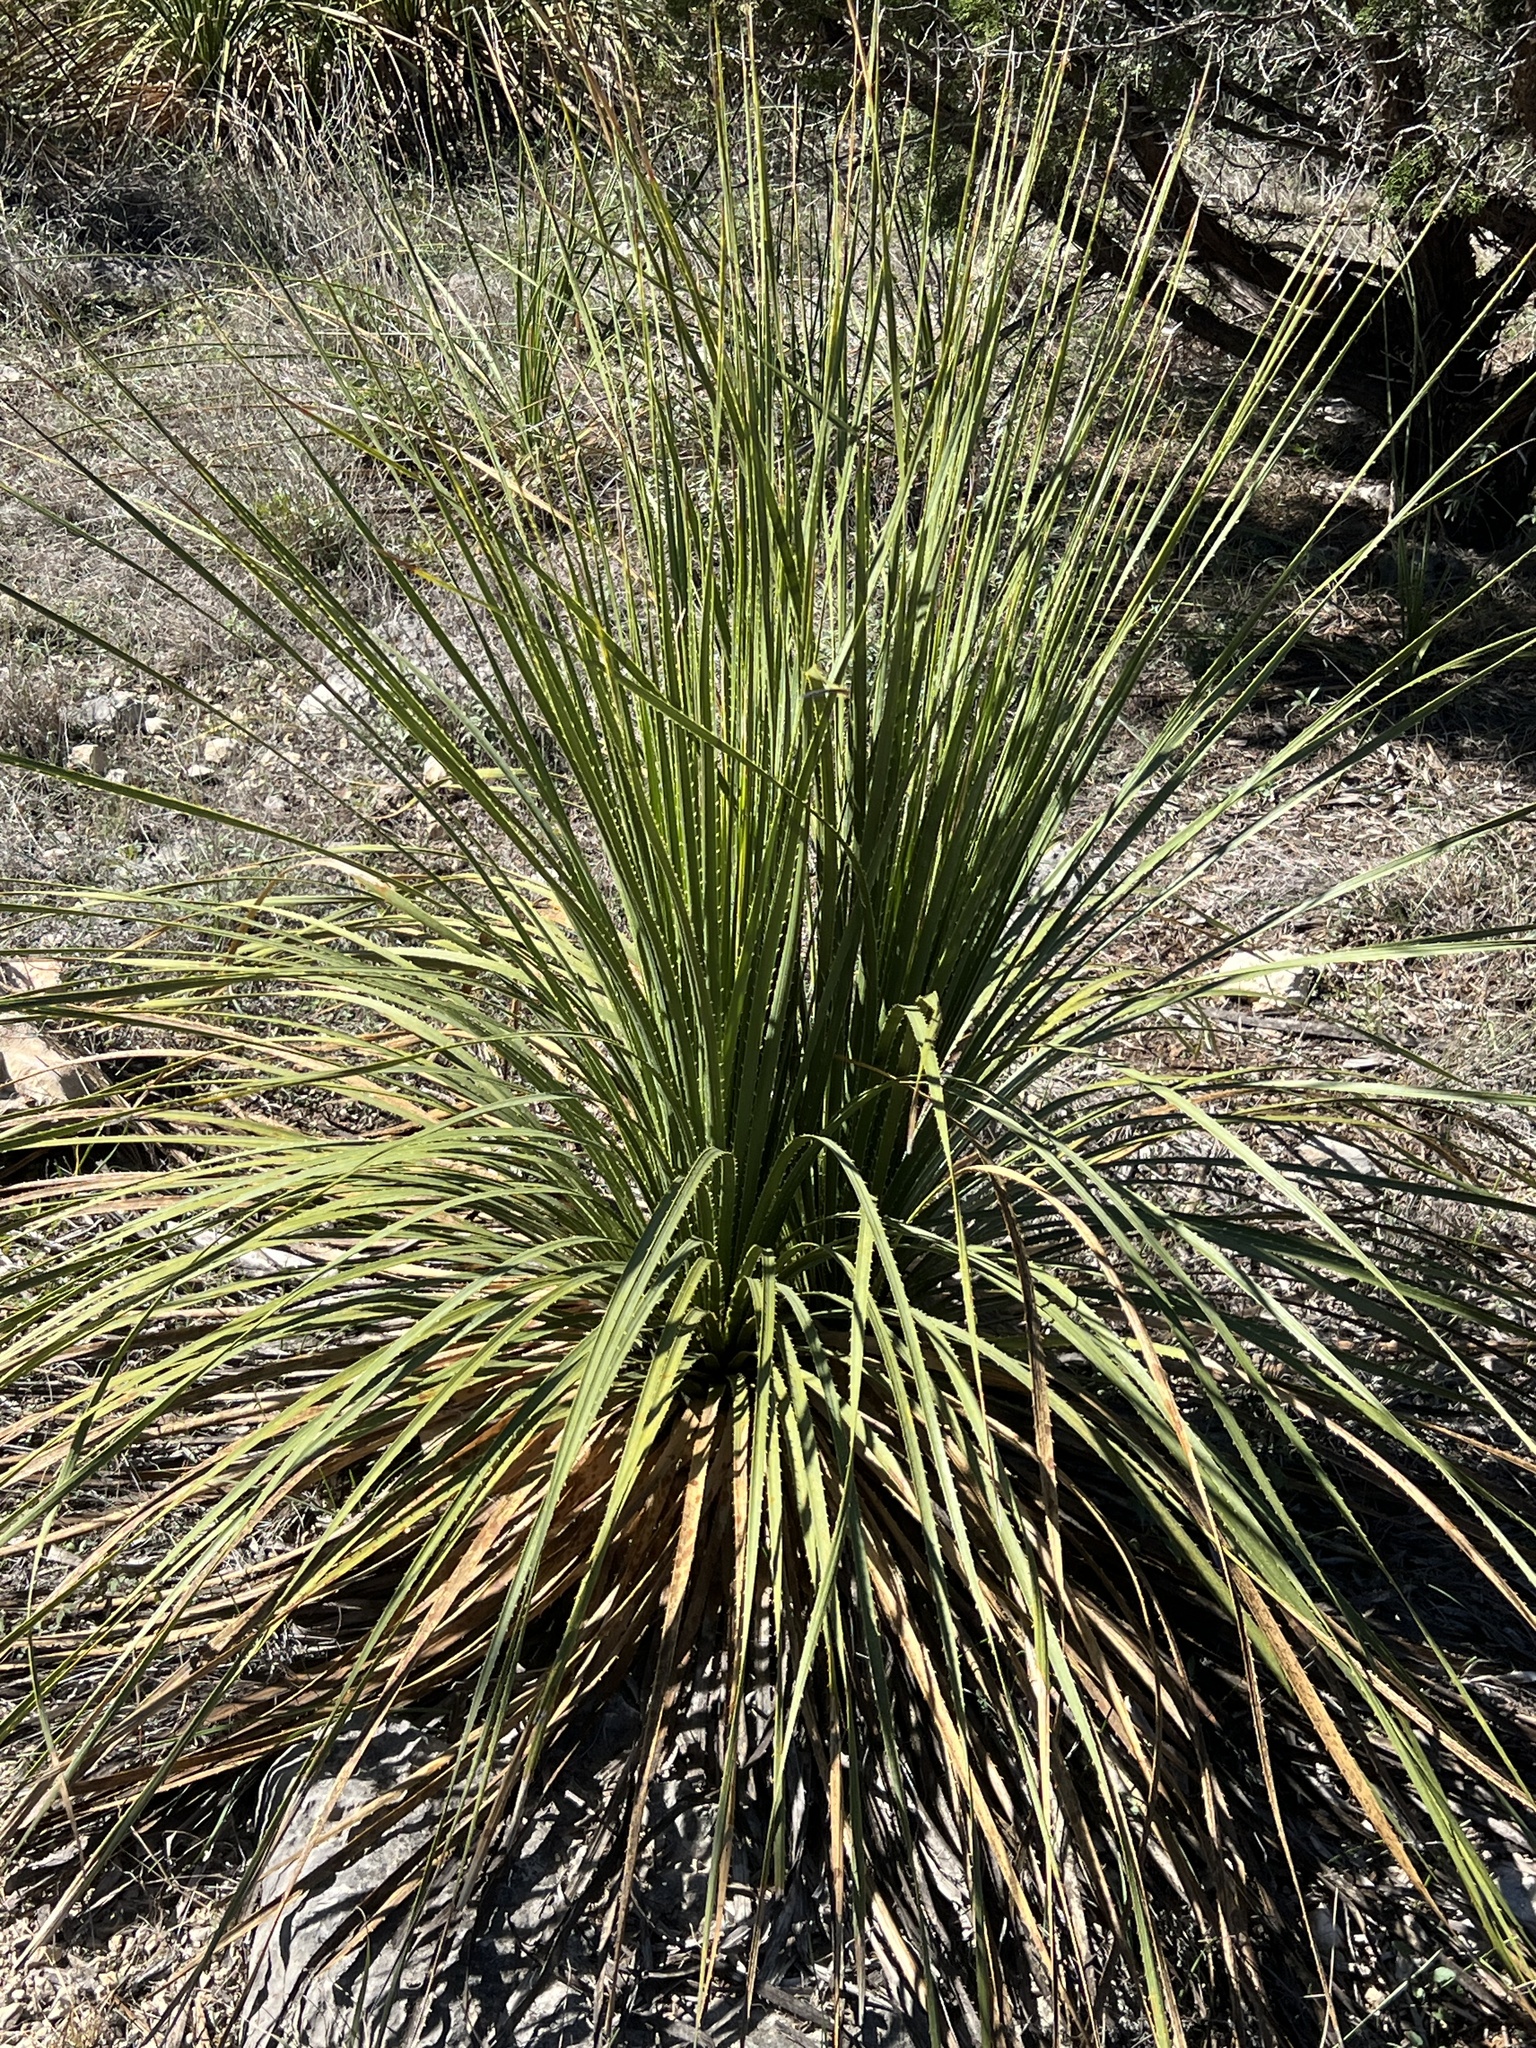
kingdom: Plantae
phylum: Tracheophyta
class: Liliopsida
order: Asparagales
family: Asparagaceae
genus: Dasylirion
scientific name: Dasylirion texanum
